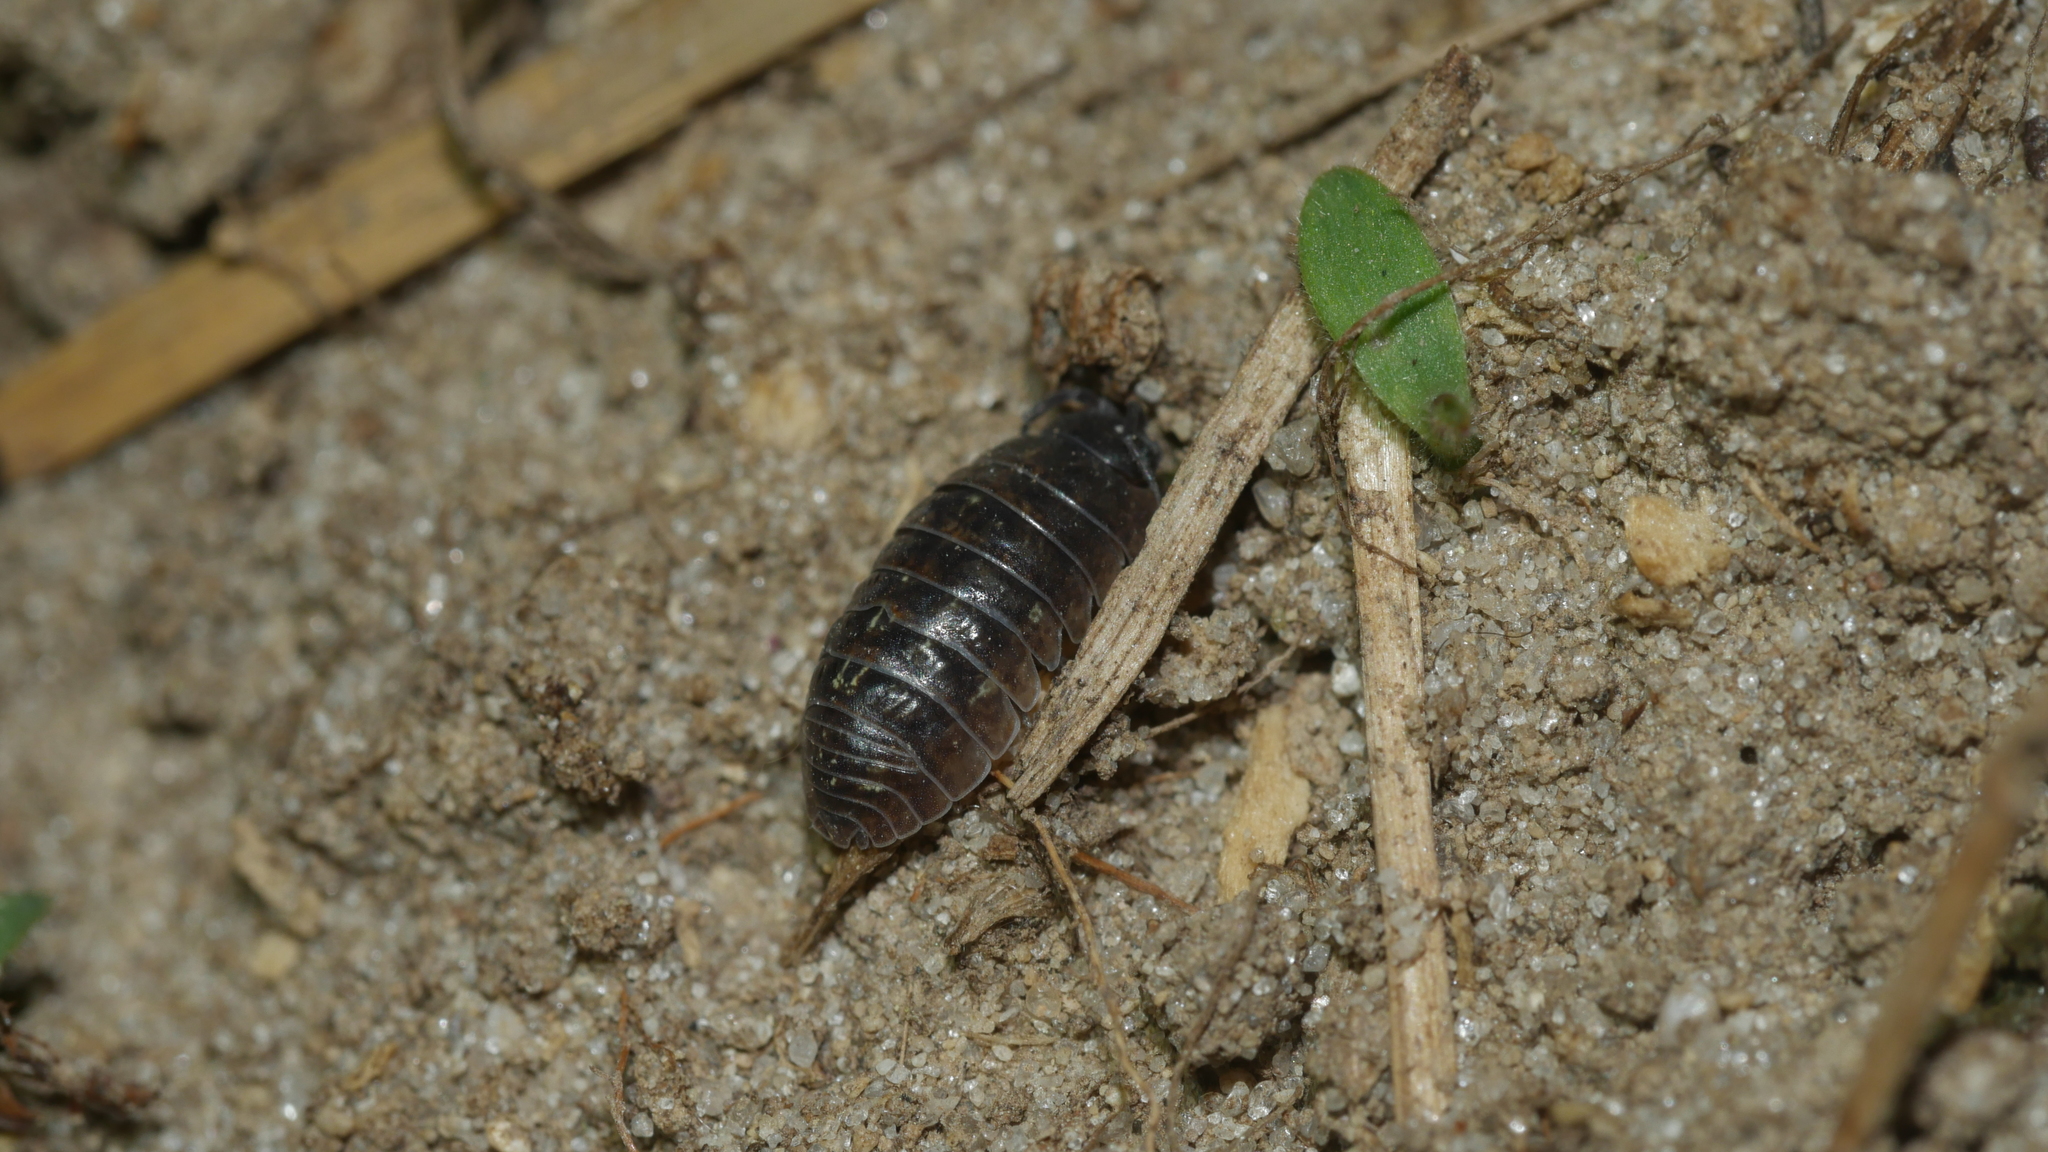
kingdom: Animalia
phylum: Arthropoda
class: Malacostraca
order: Isopoda
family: Armadillidiidae
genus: Armadillidium
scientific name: Armadillidium vulgare
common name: Common pill woodlouse
